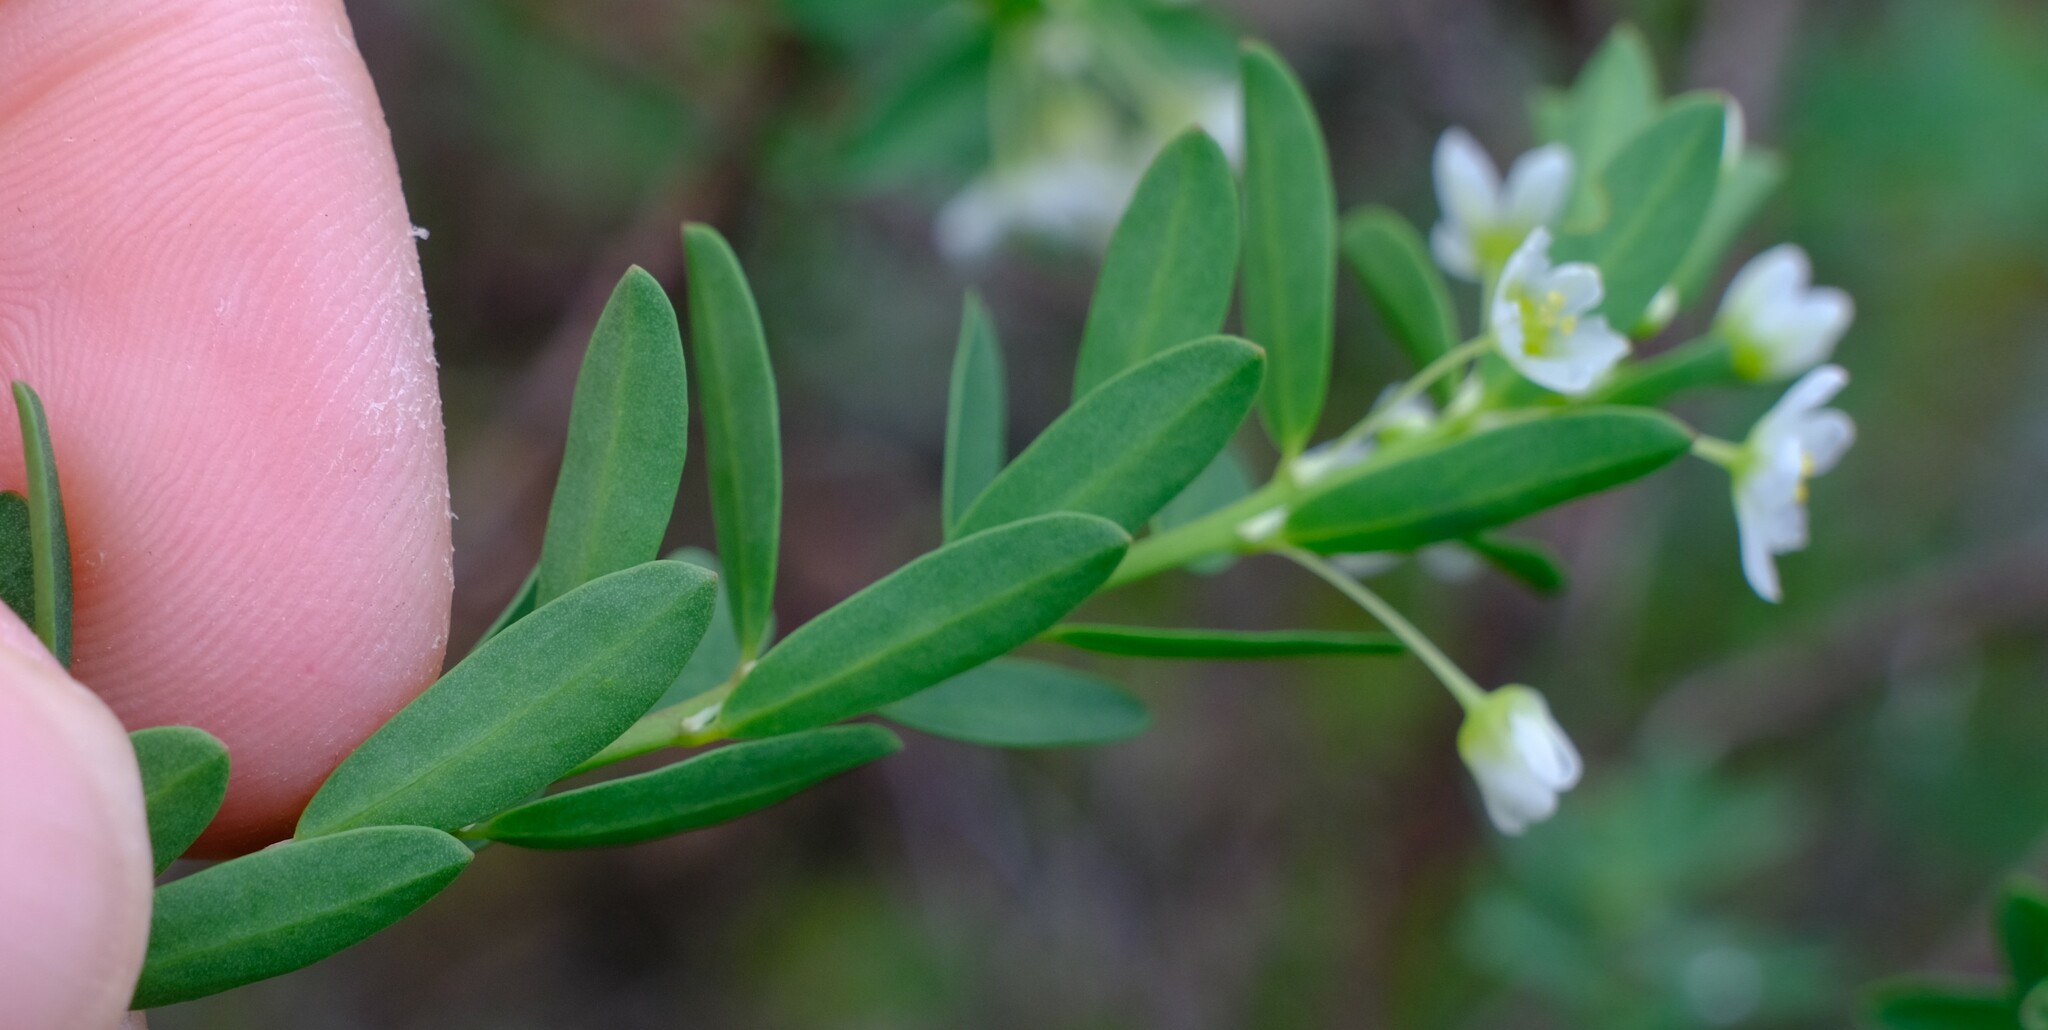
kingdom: Plantae
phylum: Tracheophyta
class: Magnoliopsida
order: Malpighiales
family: Phyllanthaceae
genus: Phyllanthus
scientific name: Phyllanthus calycinus
